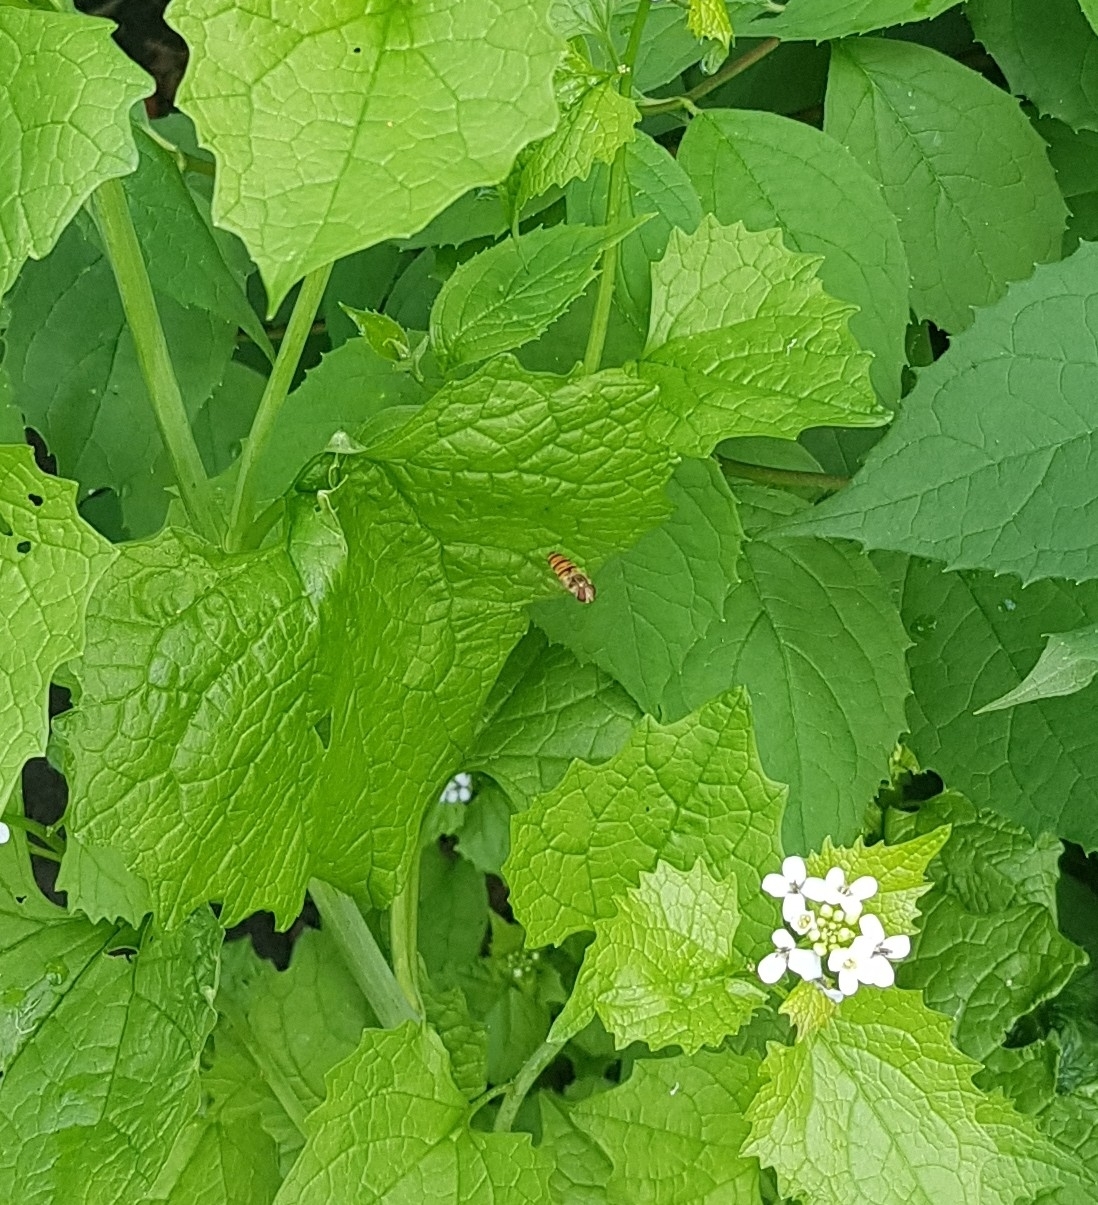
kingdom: Animalia
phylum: Arthropoda
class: Insecta
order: Diptera
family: Syrphidae
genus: Episyrphus
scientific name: Episyrphus balteatus
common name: Marmalade hoverfly
